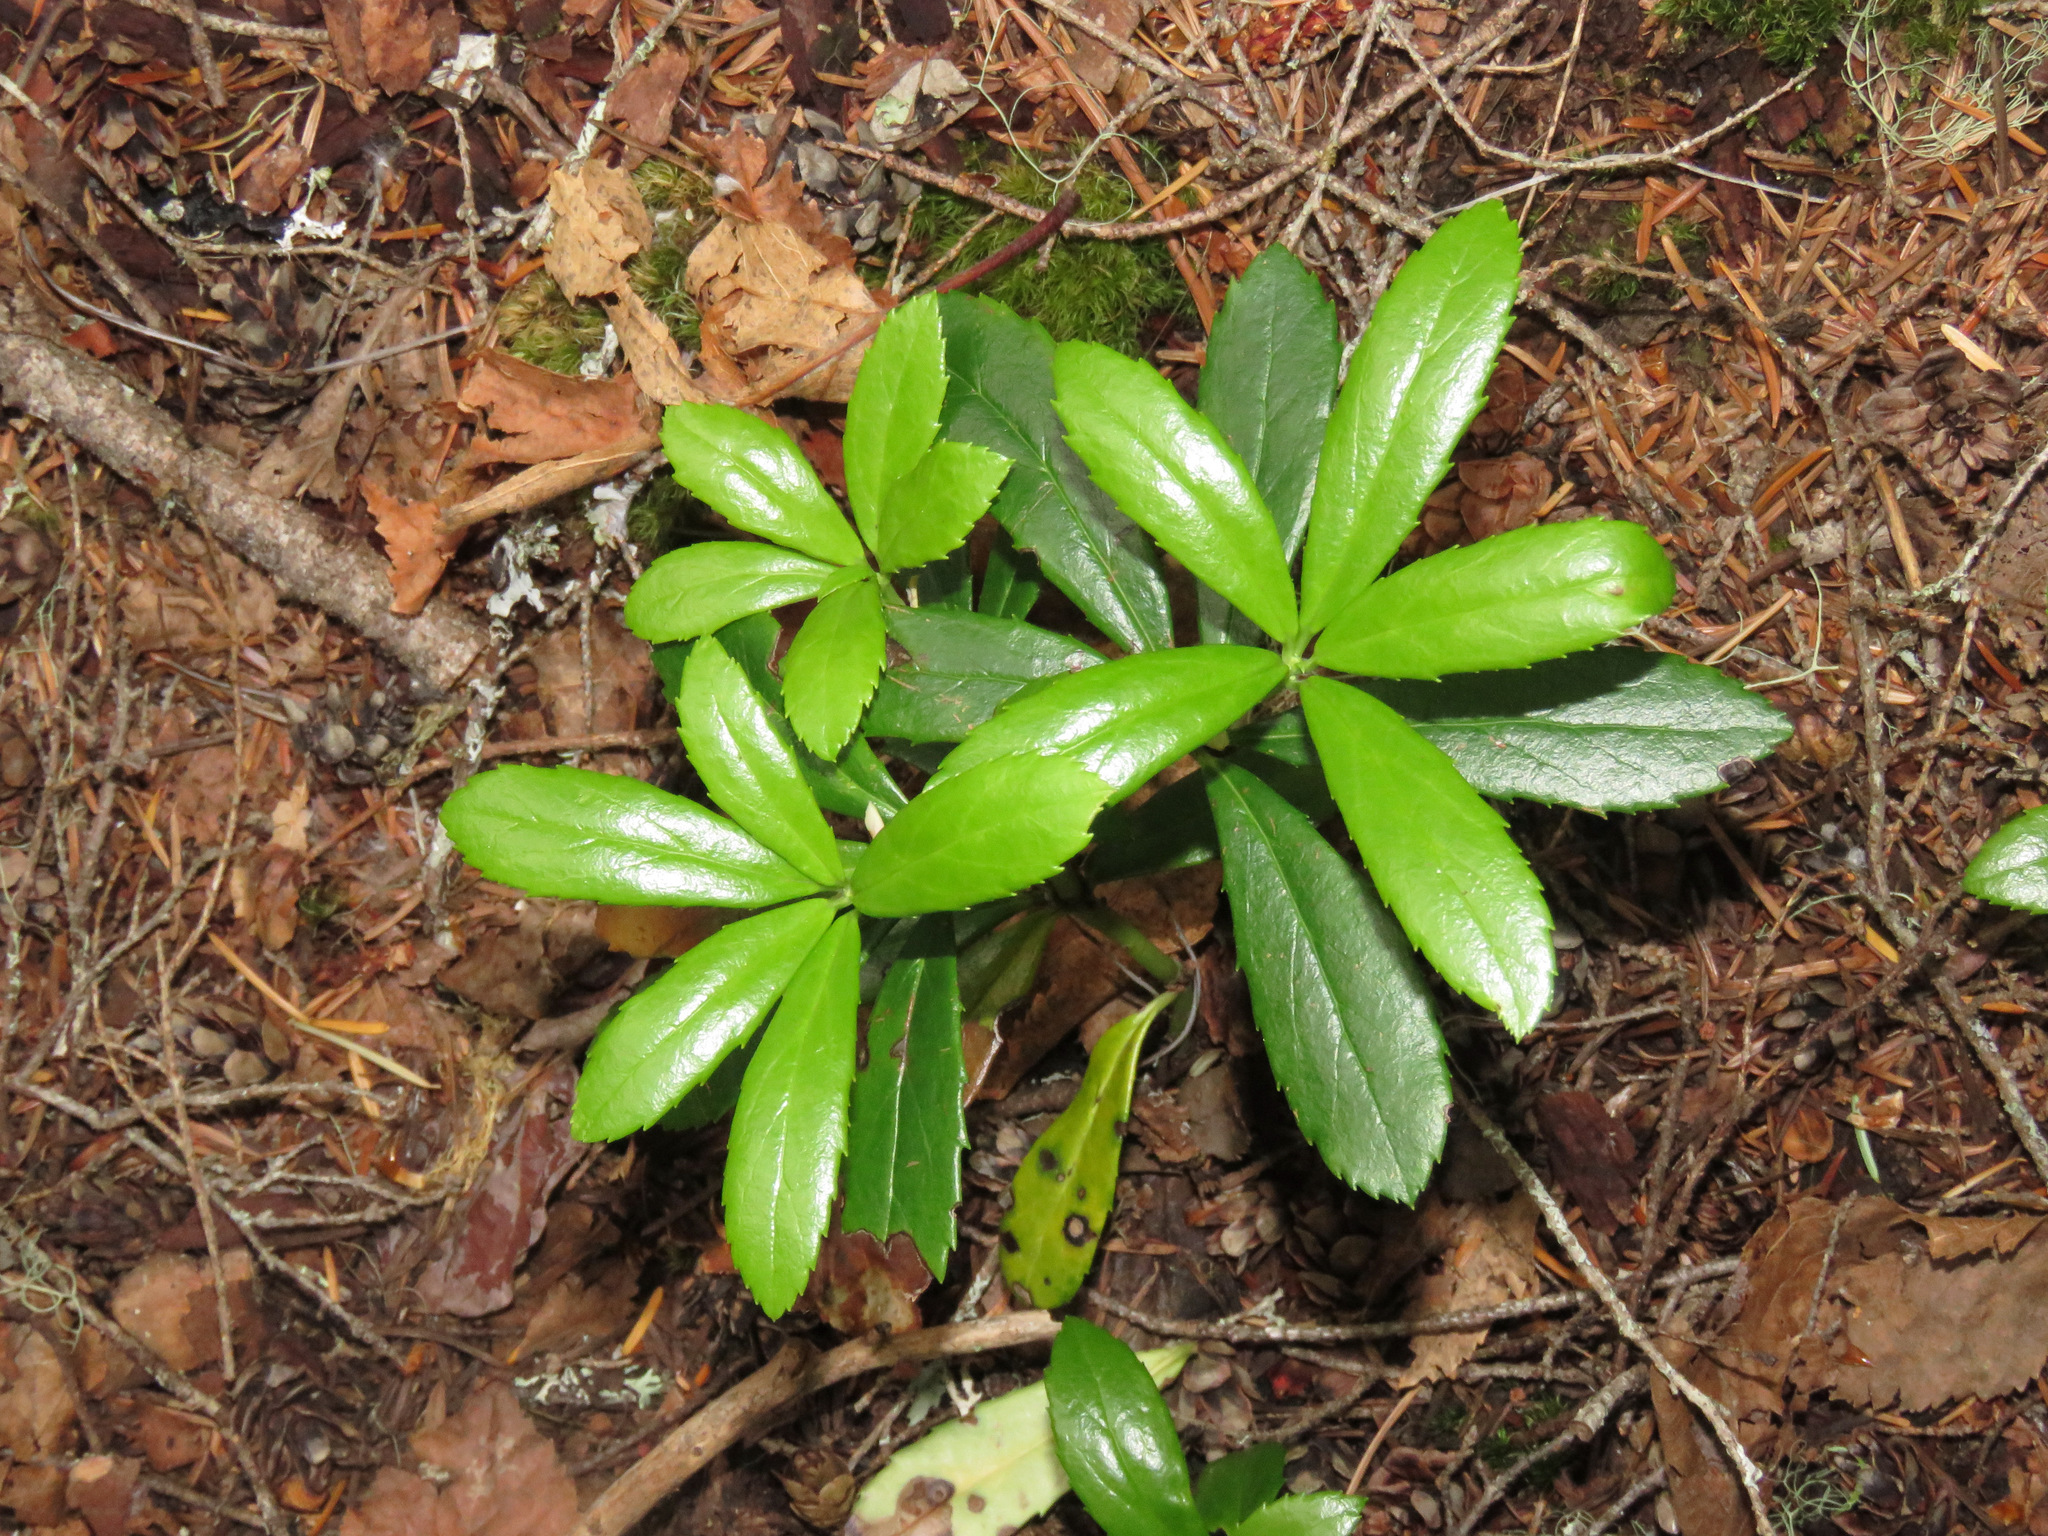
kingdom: Plantae
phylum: Tracheophyta
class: Magnoliopsida
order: Ericales
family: Ericaceae
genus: Chimaphila
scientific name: Chimaphila umbellata
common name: Pipsissewa
